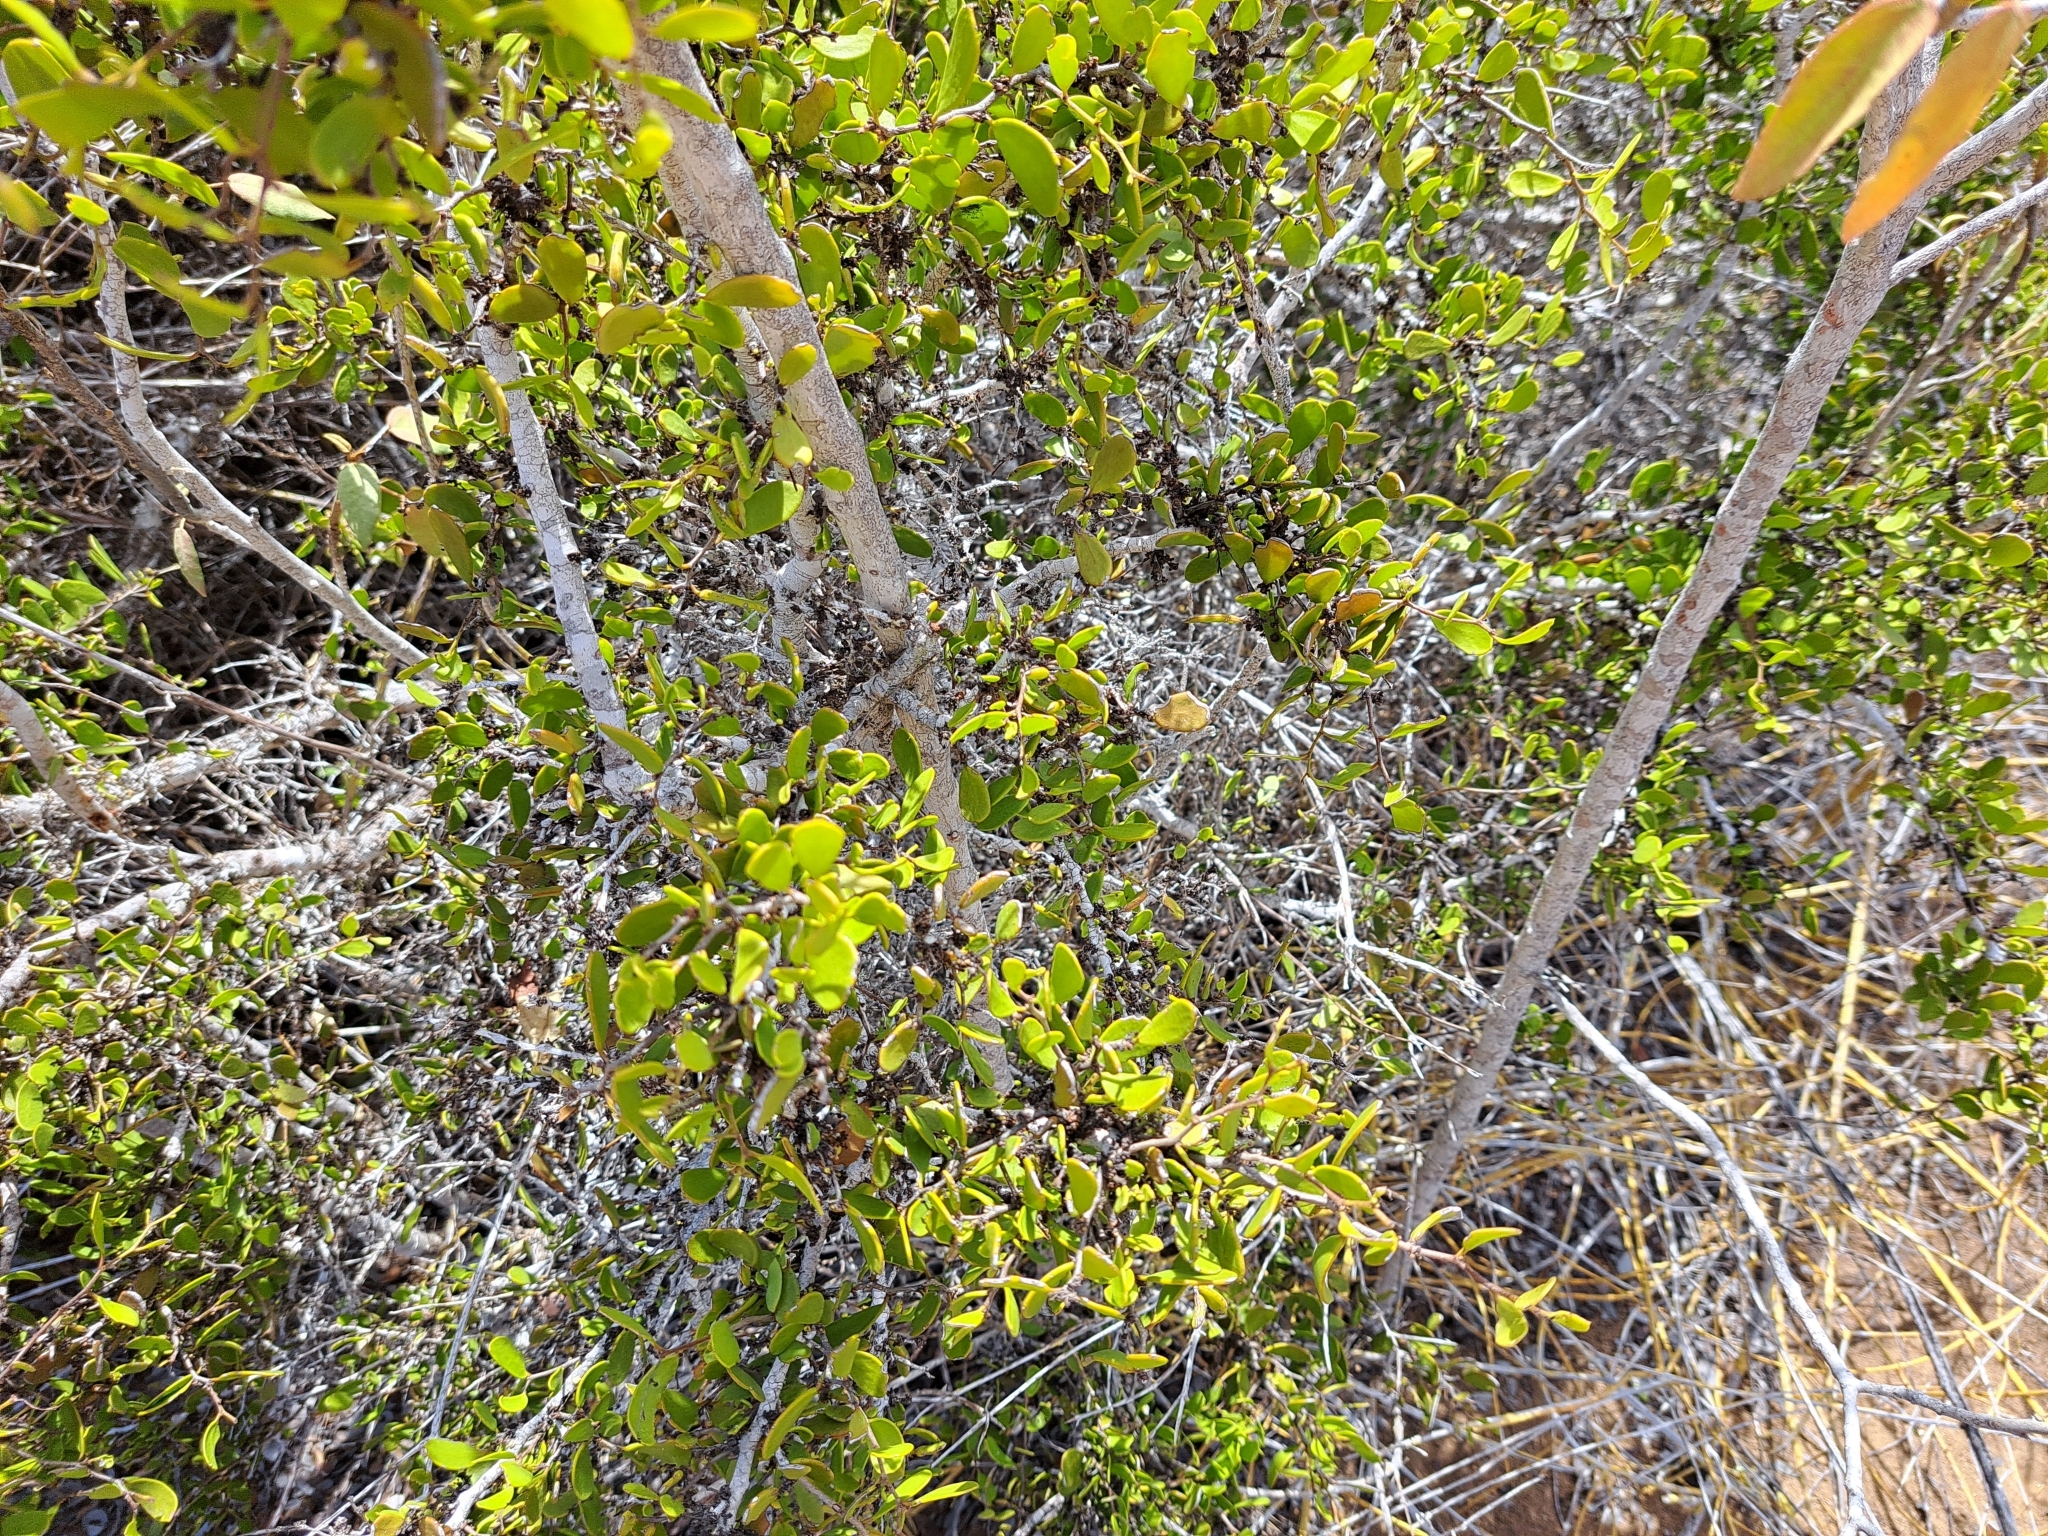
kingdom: Plantae
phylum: Tracheophyta
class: Magnoliopsida
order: Celastrales
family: Celastraceae
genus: Tricerma
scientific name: Tricerma octogonum
